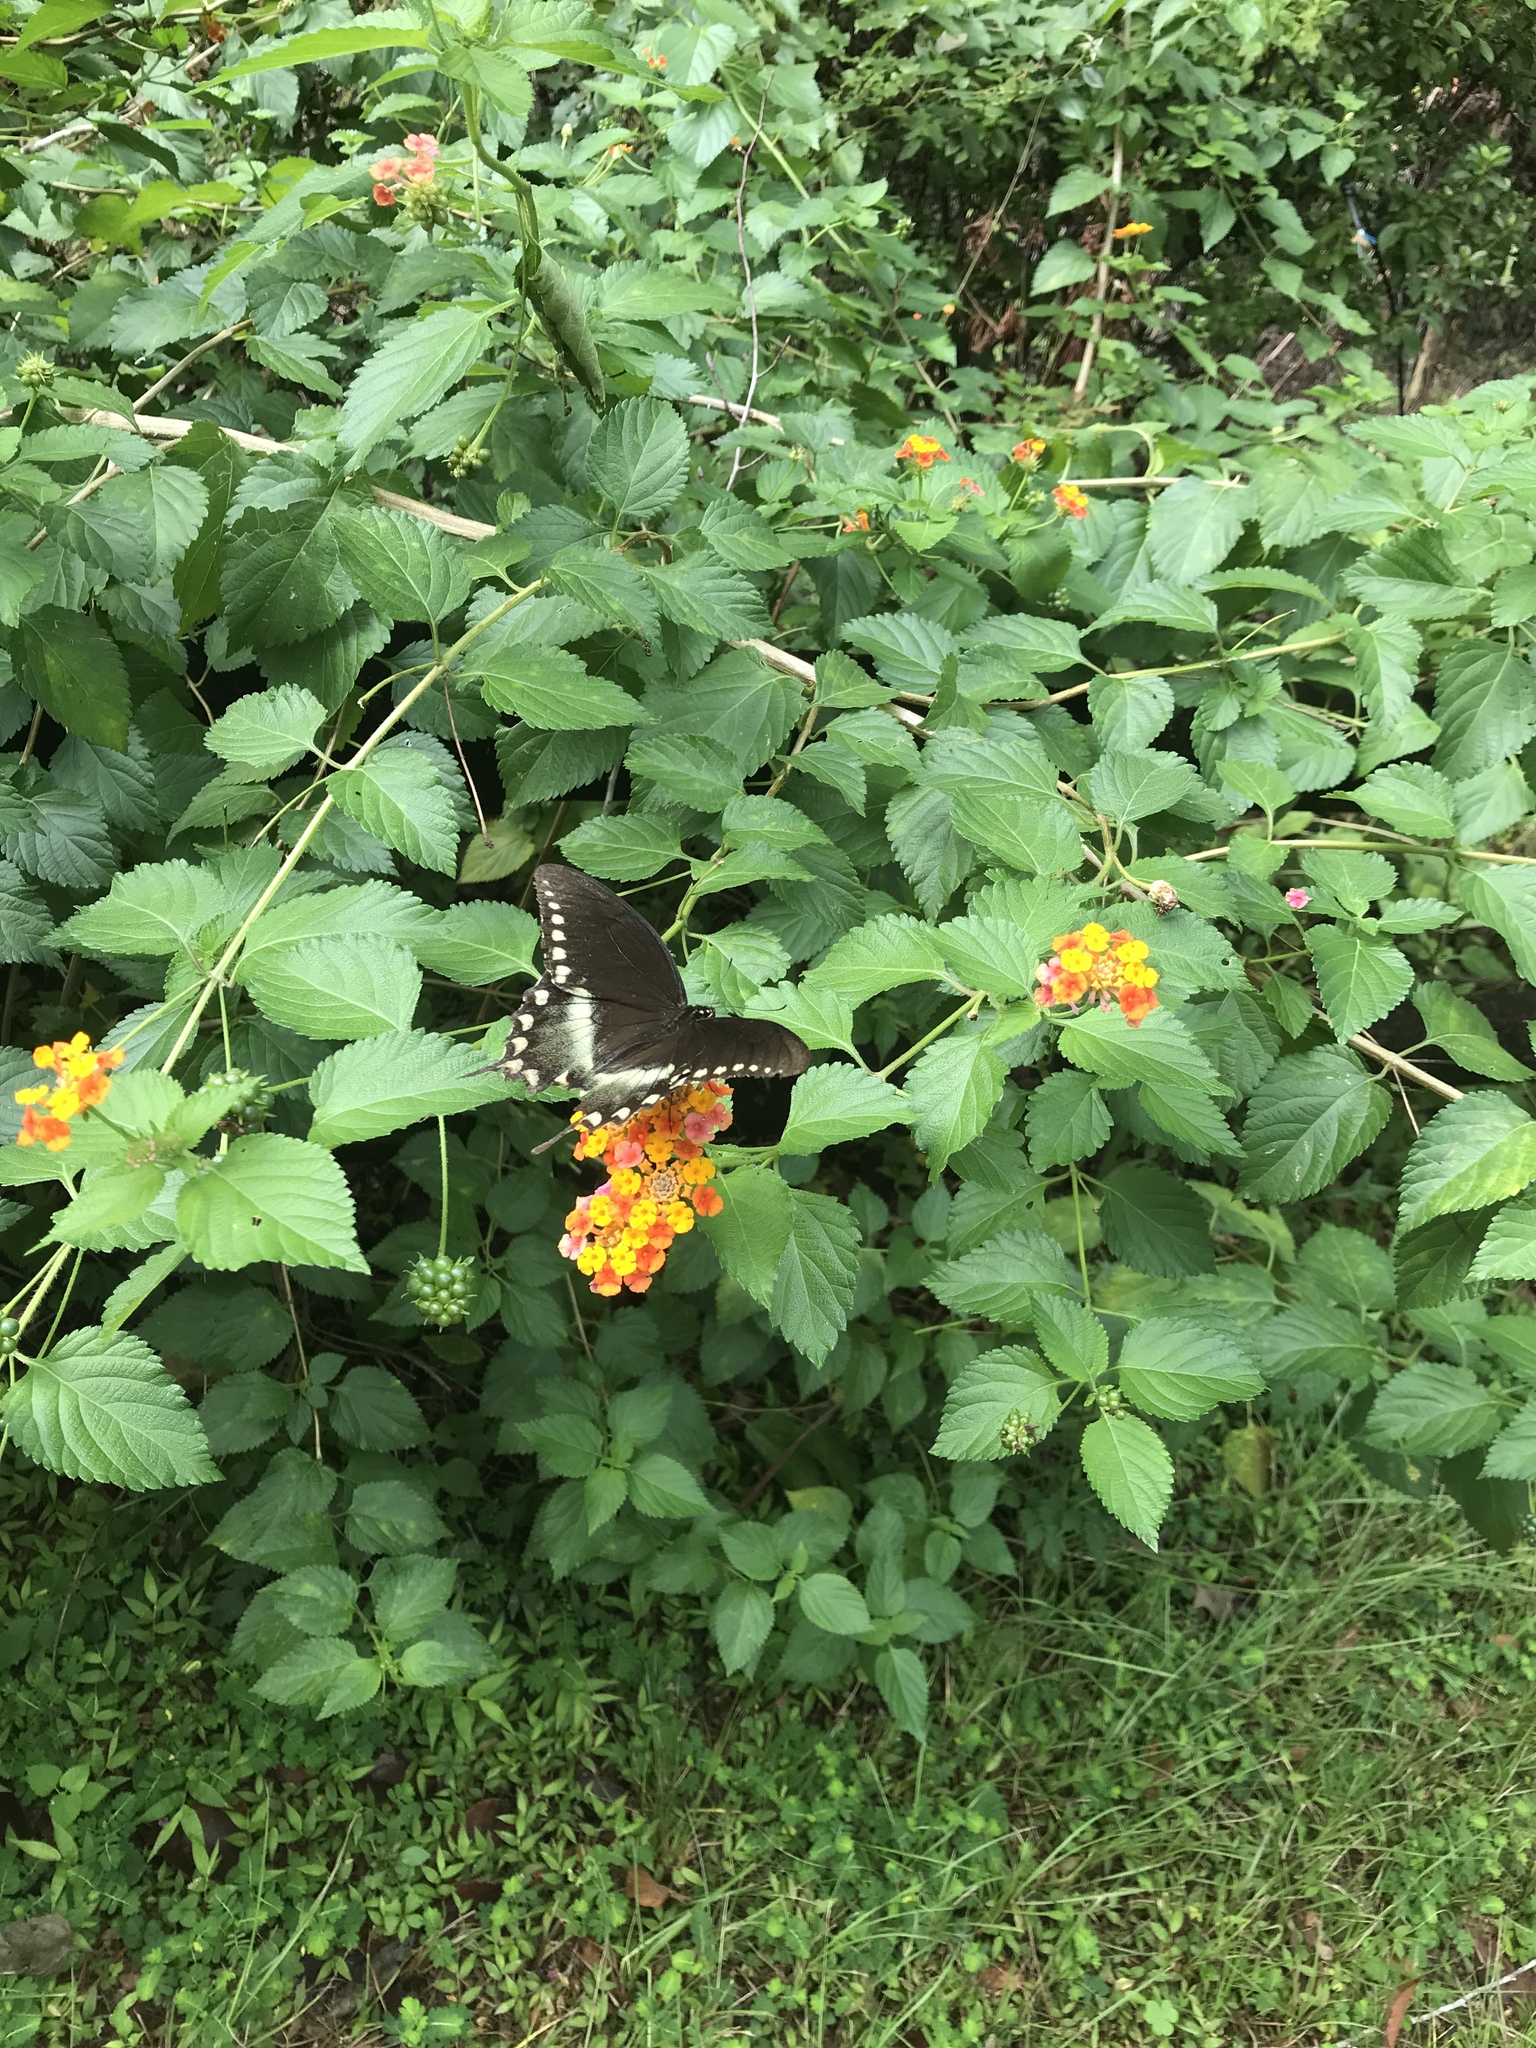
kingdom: Animalia
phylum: Arthropoda
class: Insecta
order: Lepidoptera
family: Papilionidae
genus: Papilio
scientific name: Papilio troilus
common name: Spicebush swallowtail
